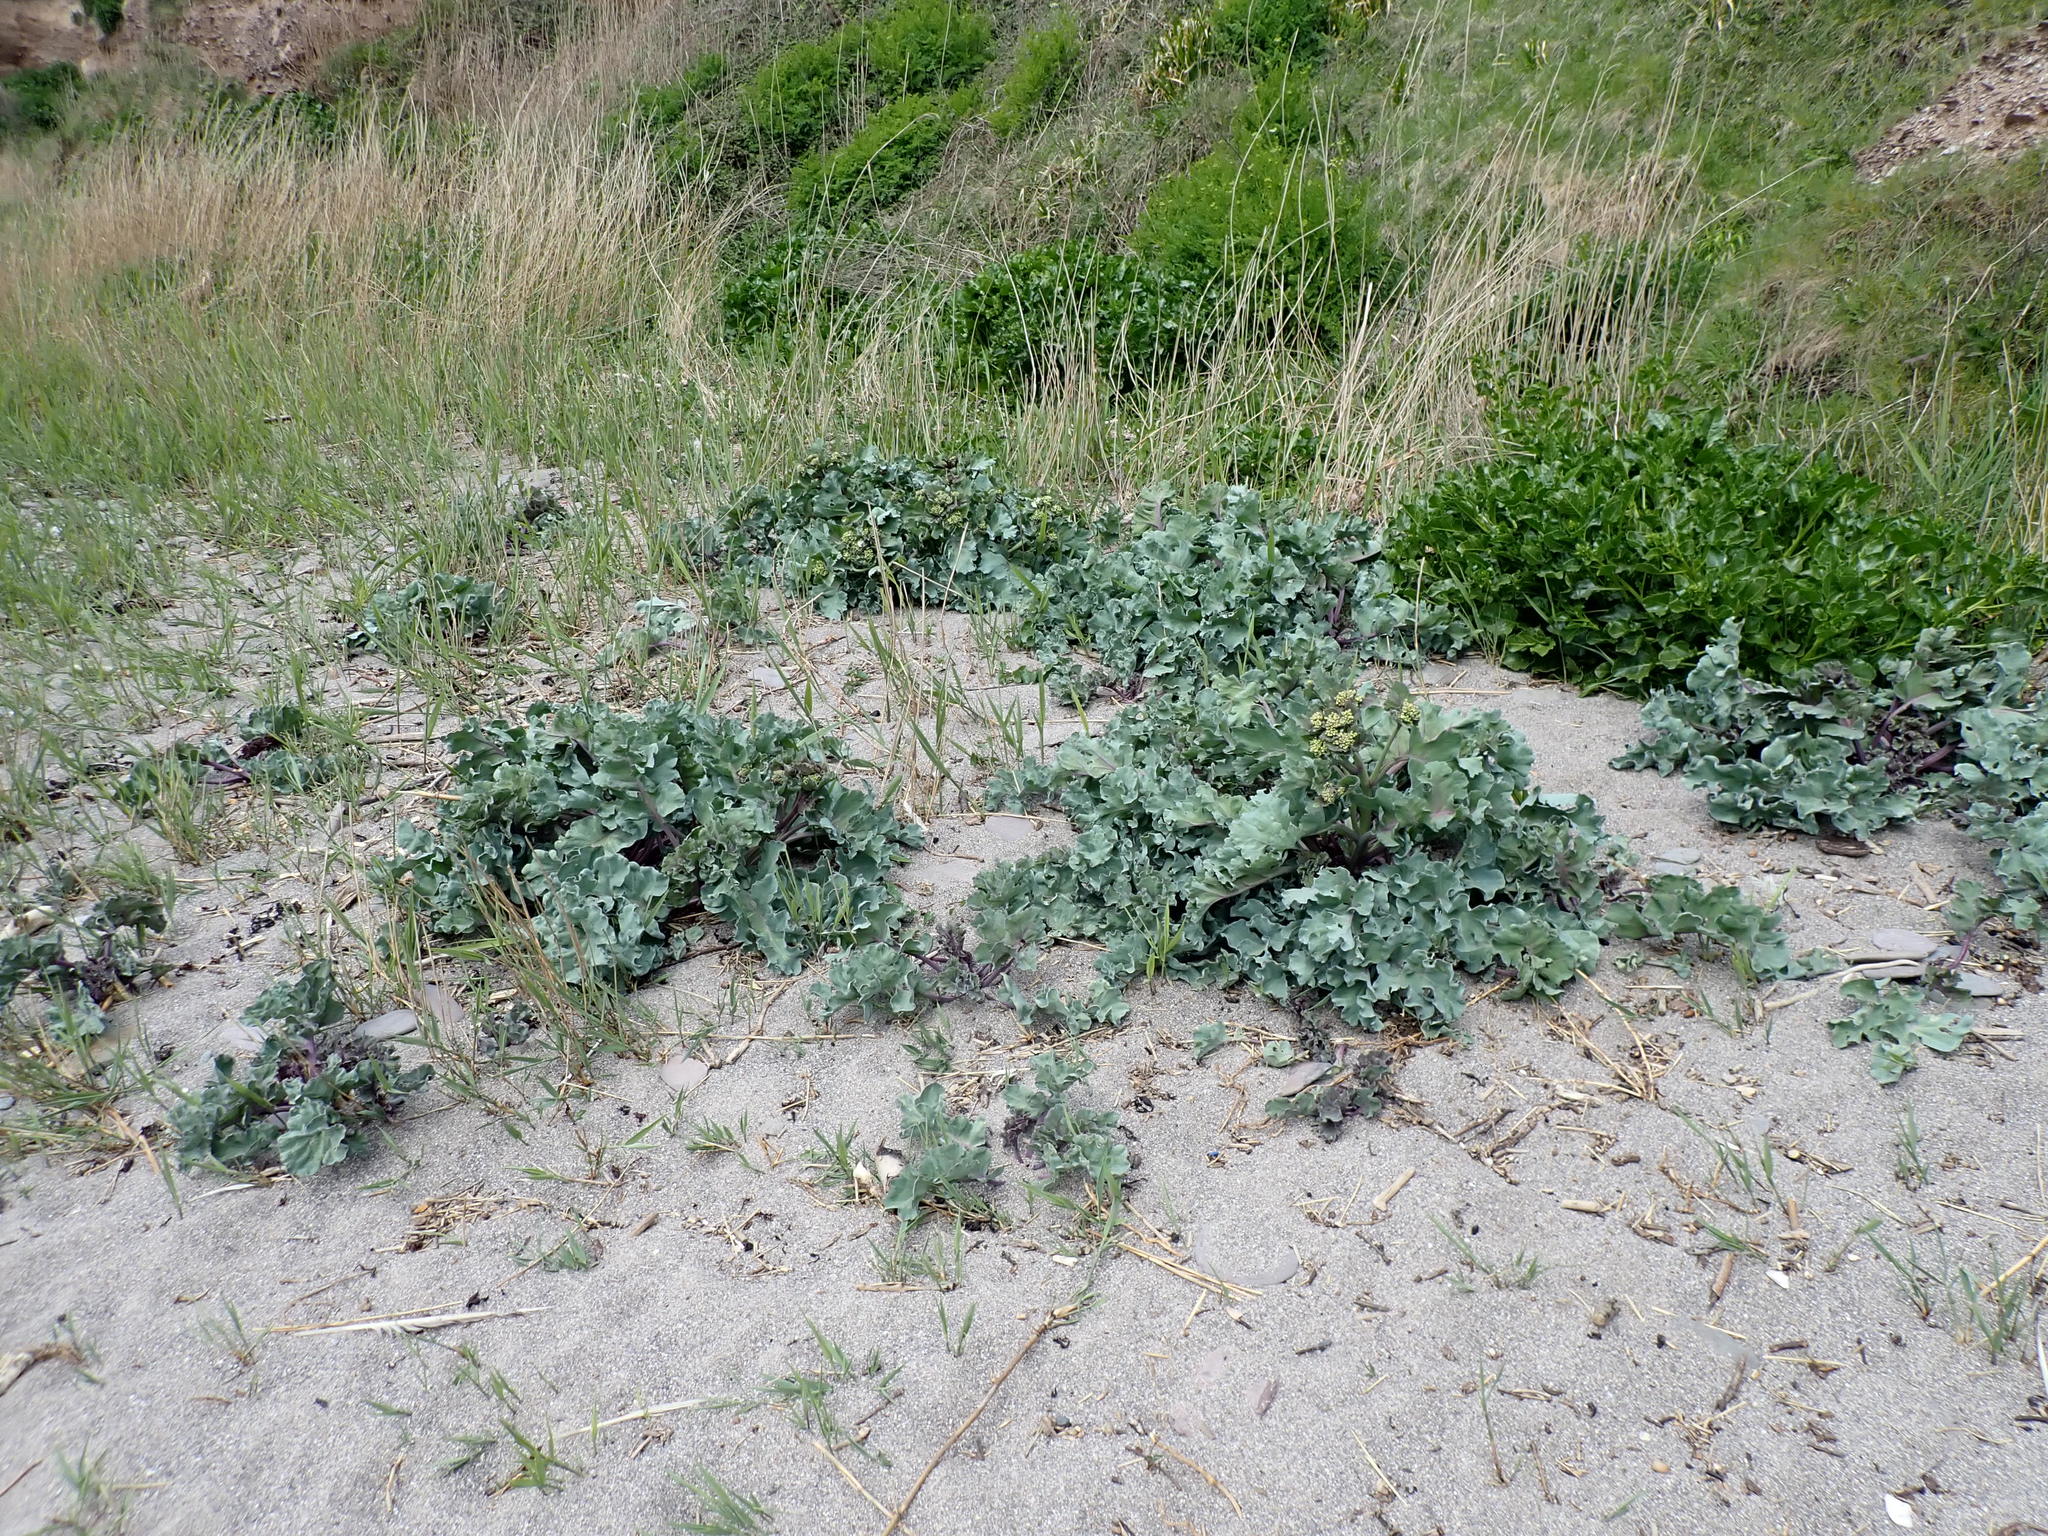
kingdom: Plantae
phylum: Tracheophyta
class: Magnoliopsida
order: Brassicales
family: Brassicaceae
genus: Crambe
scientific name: Crambe maritima
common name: Sea-kale
